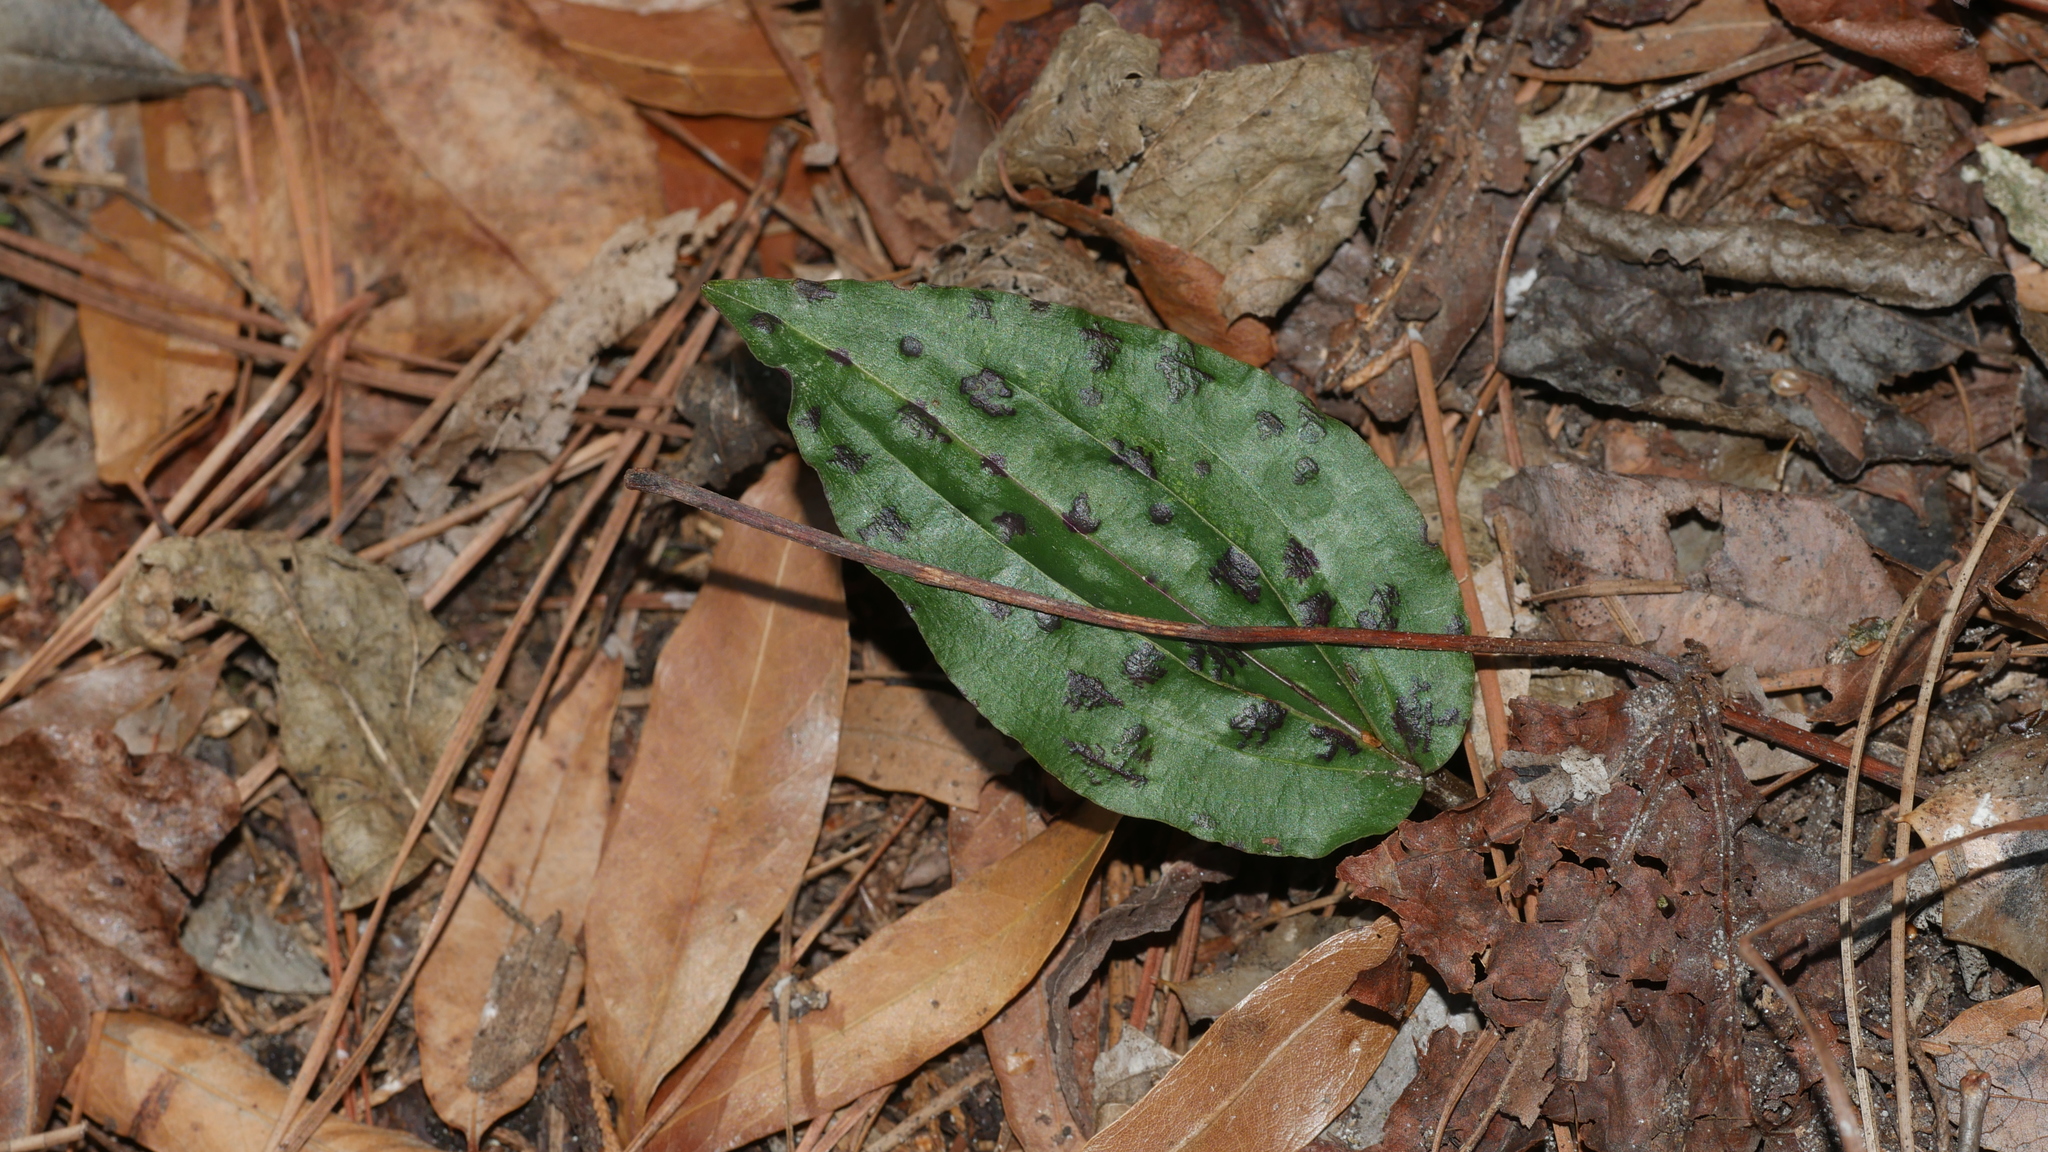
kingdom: Plantae
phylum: Tracheophyta
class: Liliopsida
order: Asparagales
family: Orchidaceae
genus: Tipularia
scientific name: Tipularia discolor
